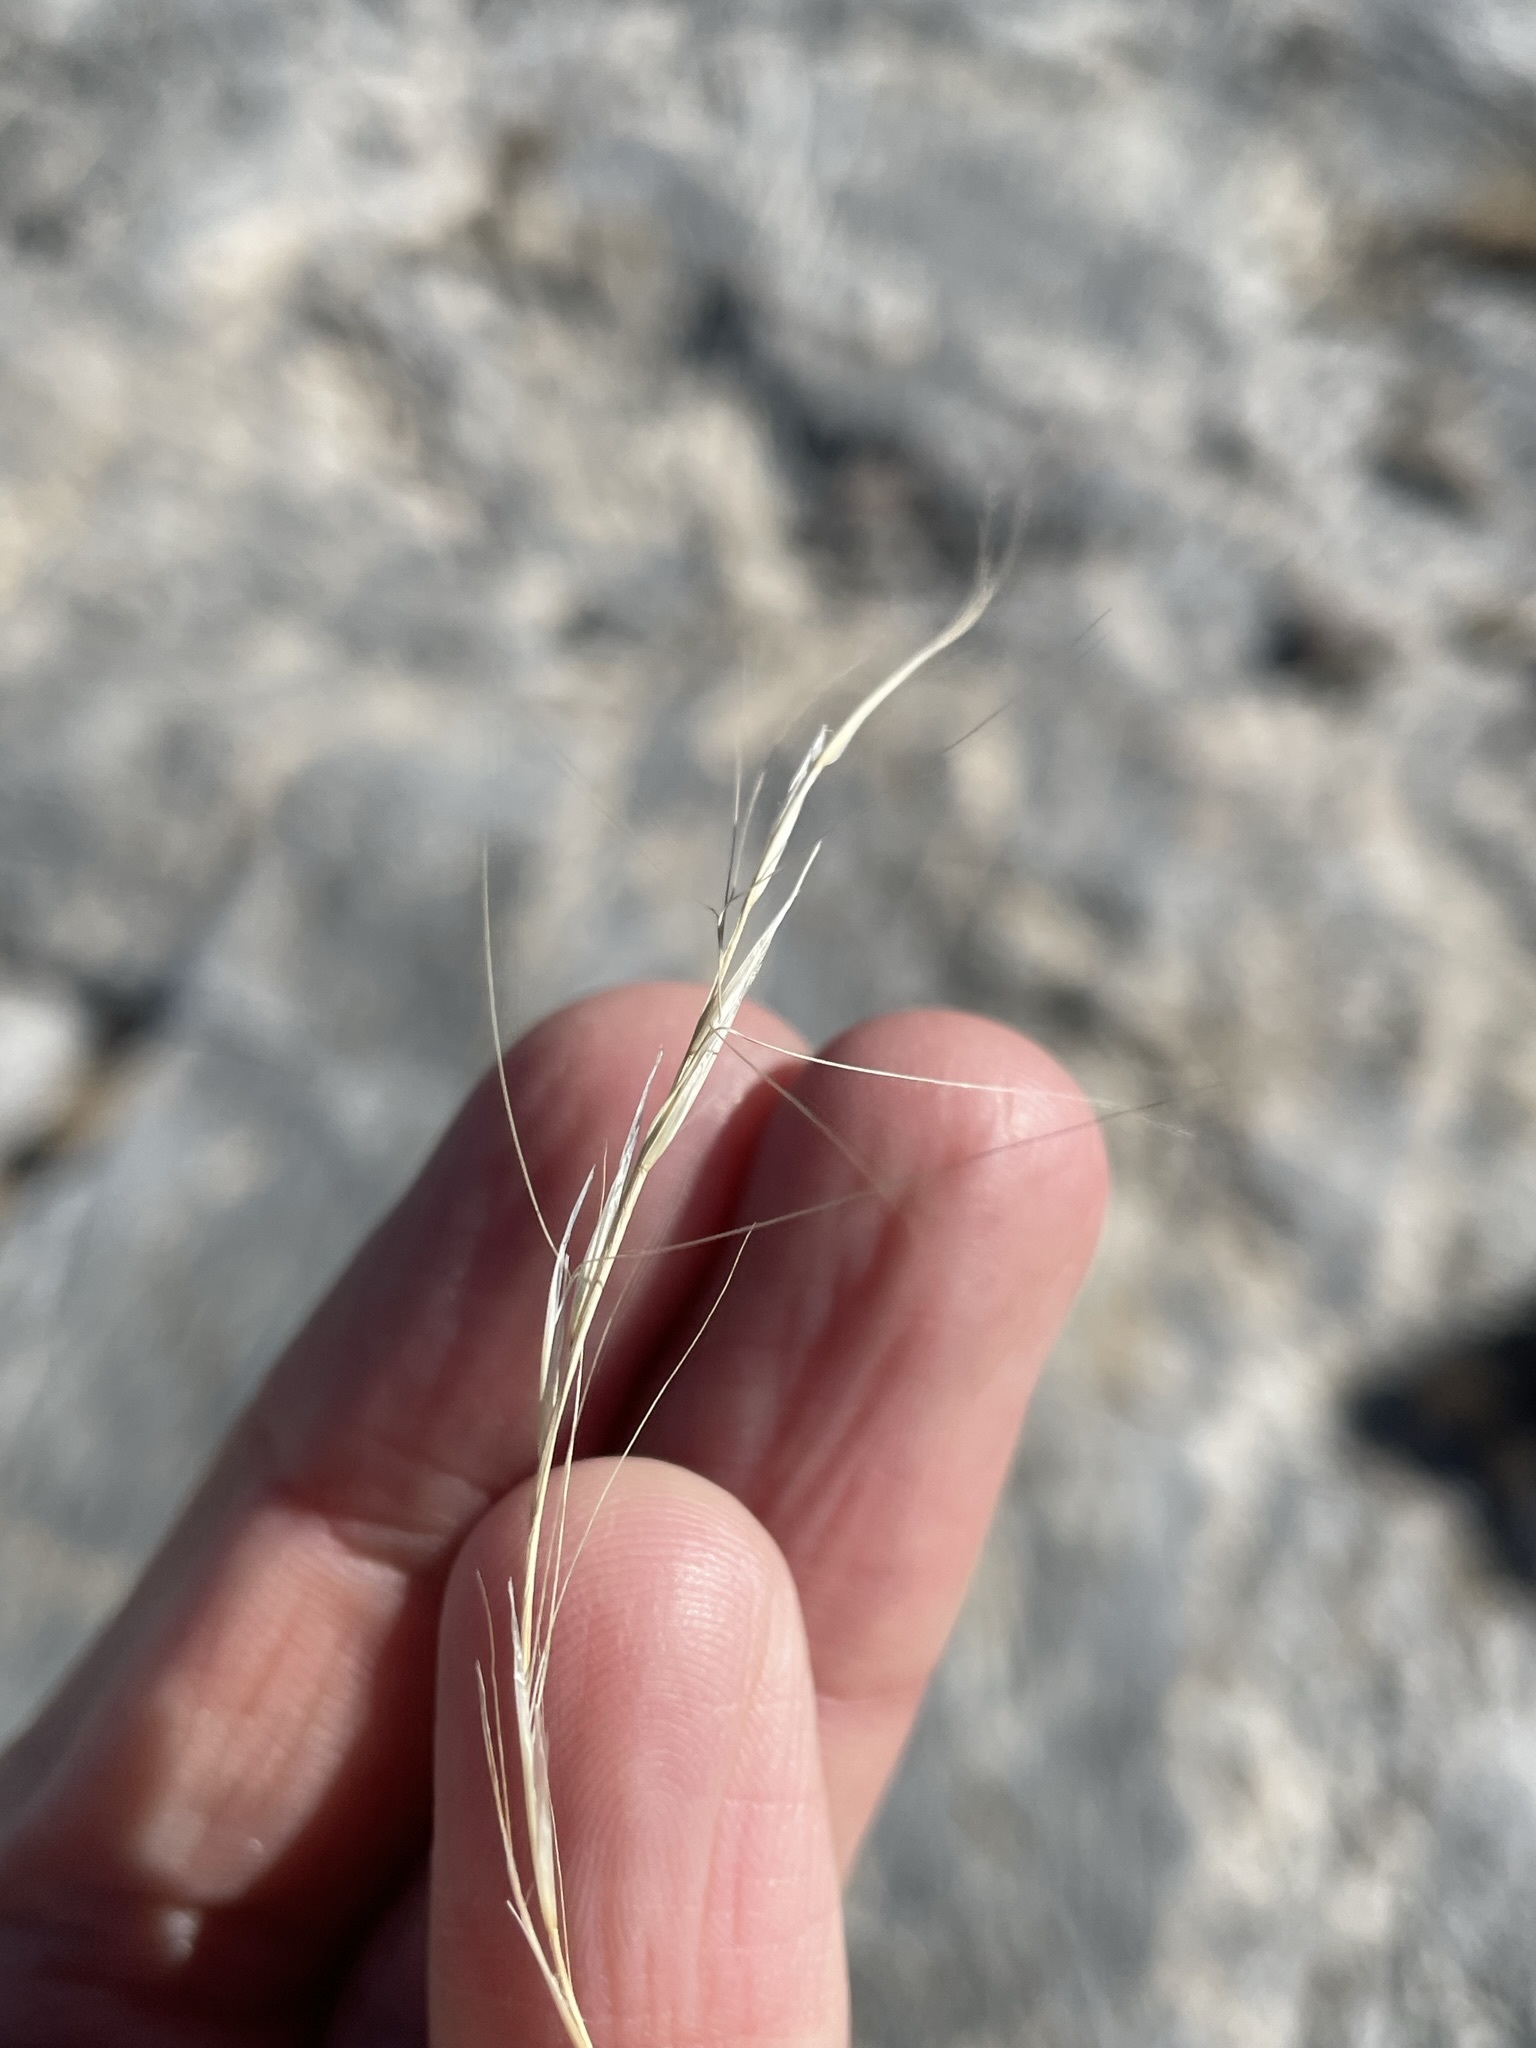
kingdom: Plantae
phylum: Tracheophyta
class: Liliopsida
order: Poales
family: Poaceae
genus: Aristida
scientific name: Aristida purpurea
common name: Purple threeawn
